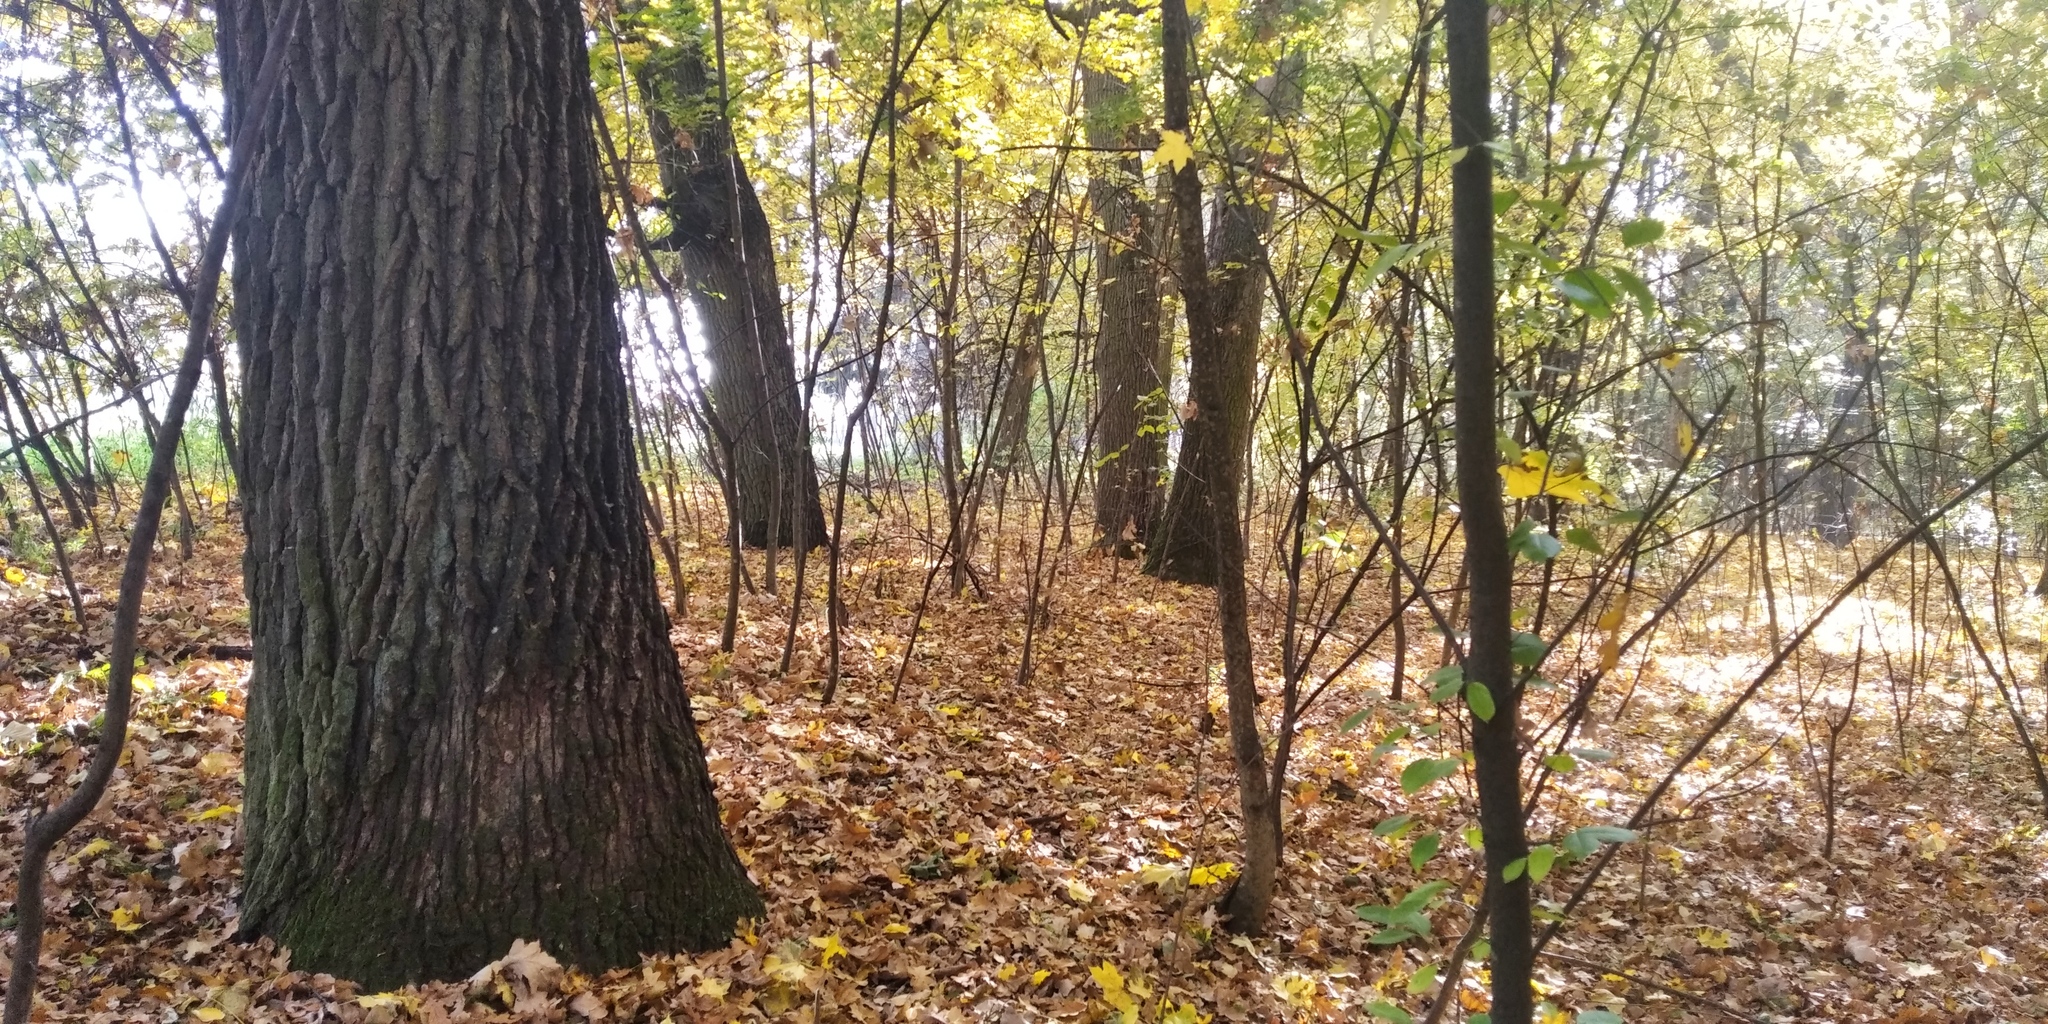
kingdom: Plantae
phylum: Tracheophyta
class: Magnoliopsida
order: Fagales
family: Fagaceae
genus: Quercus
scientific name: Quercus robur
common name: Pedunculate oak
